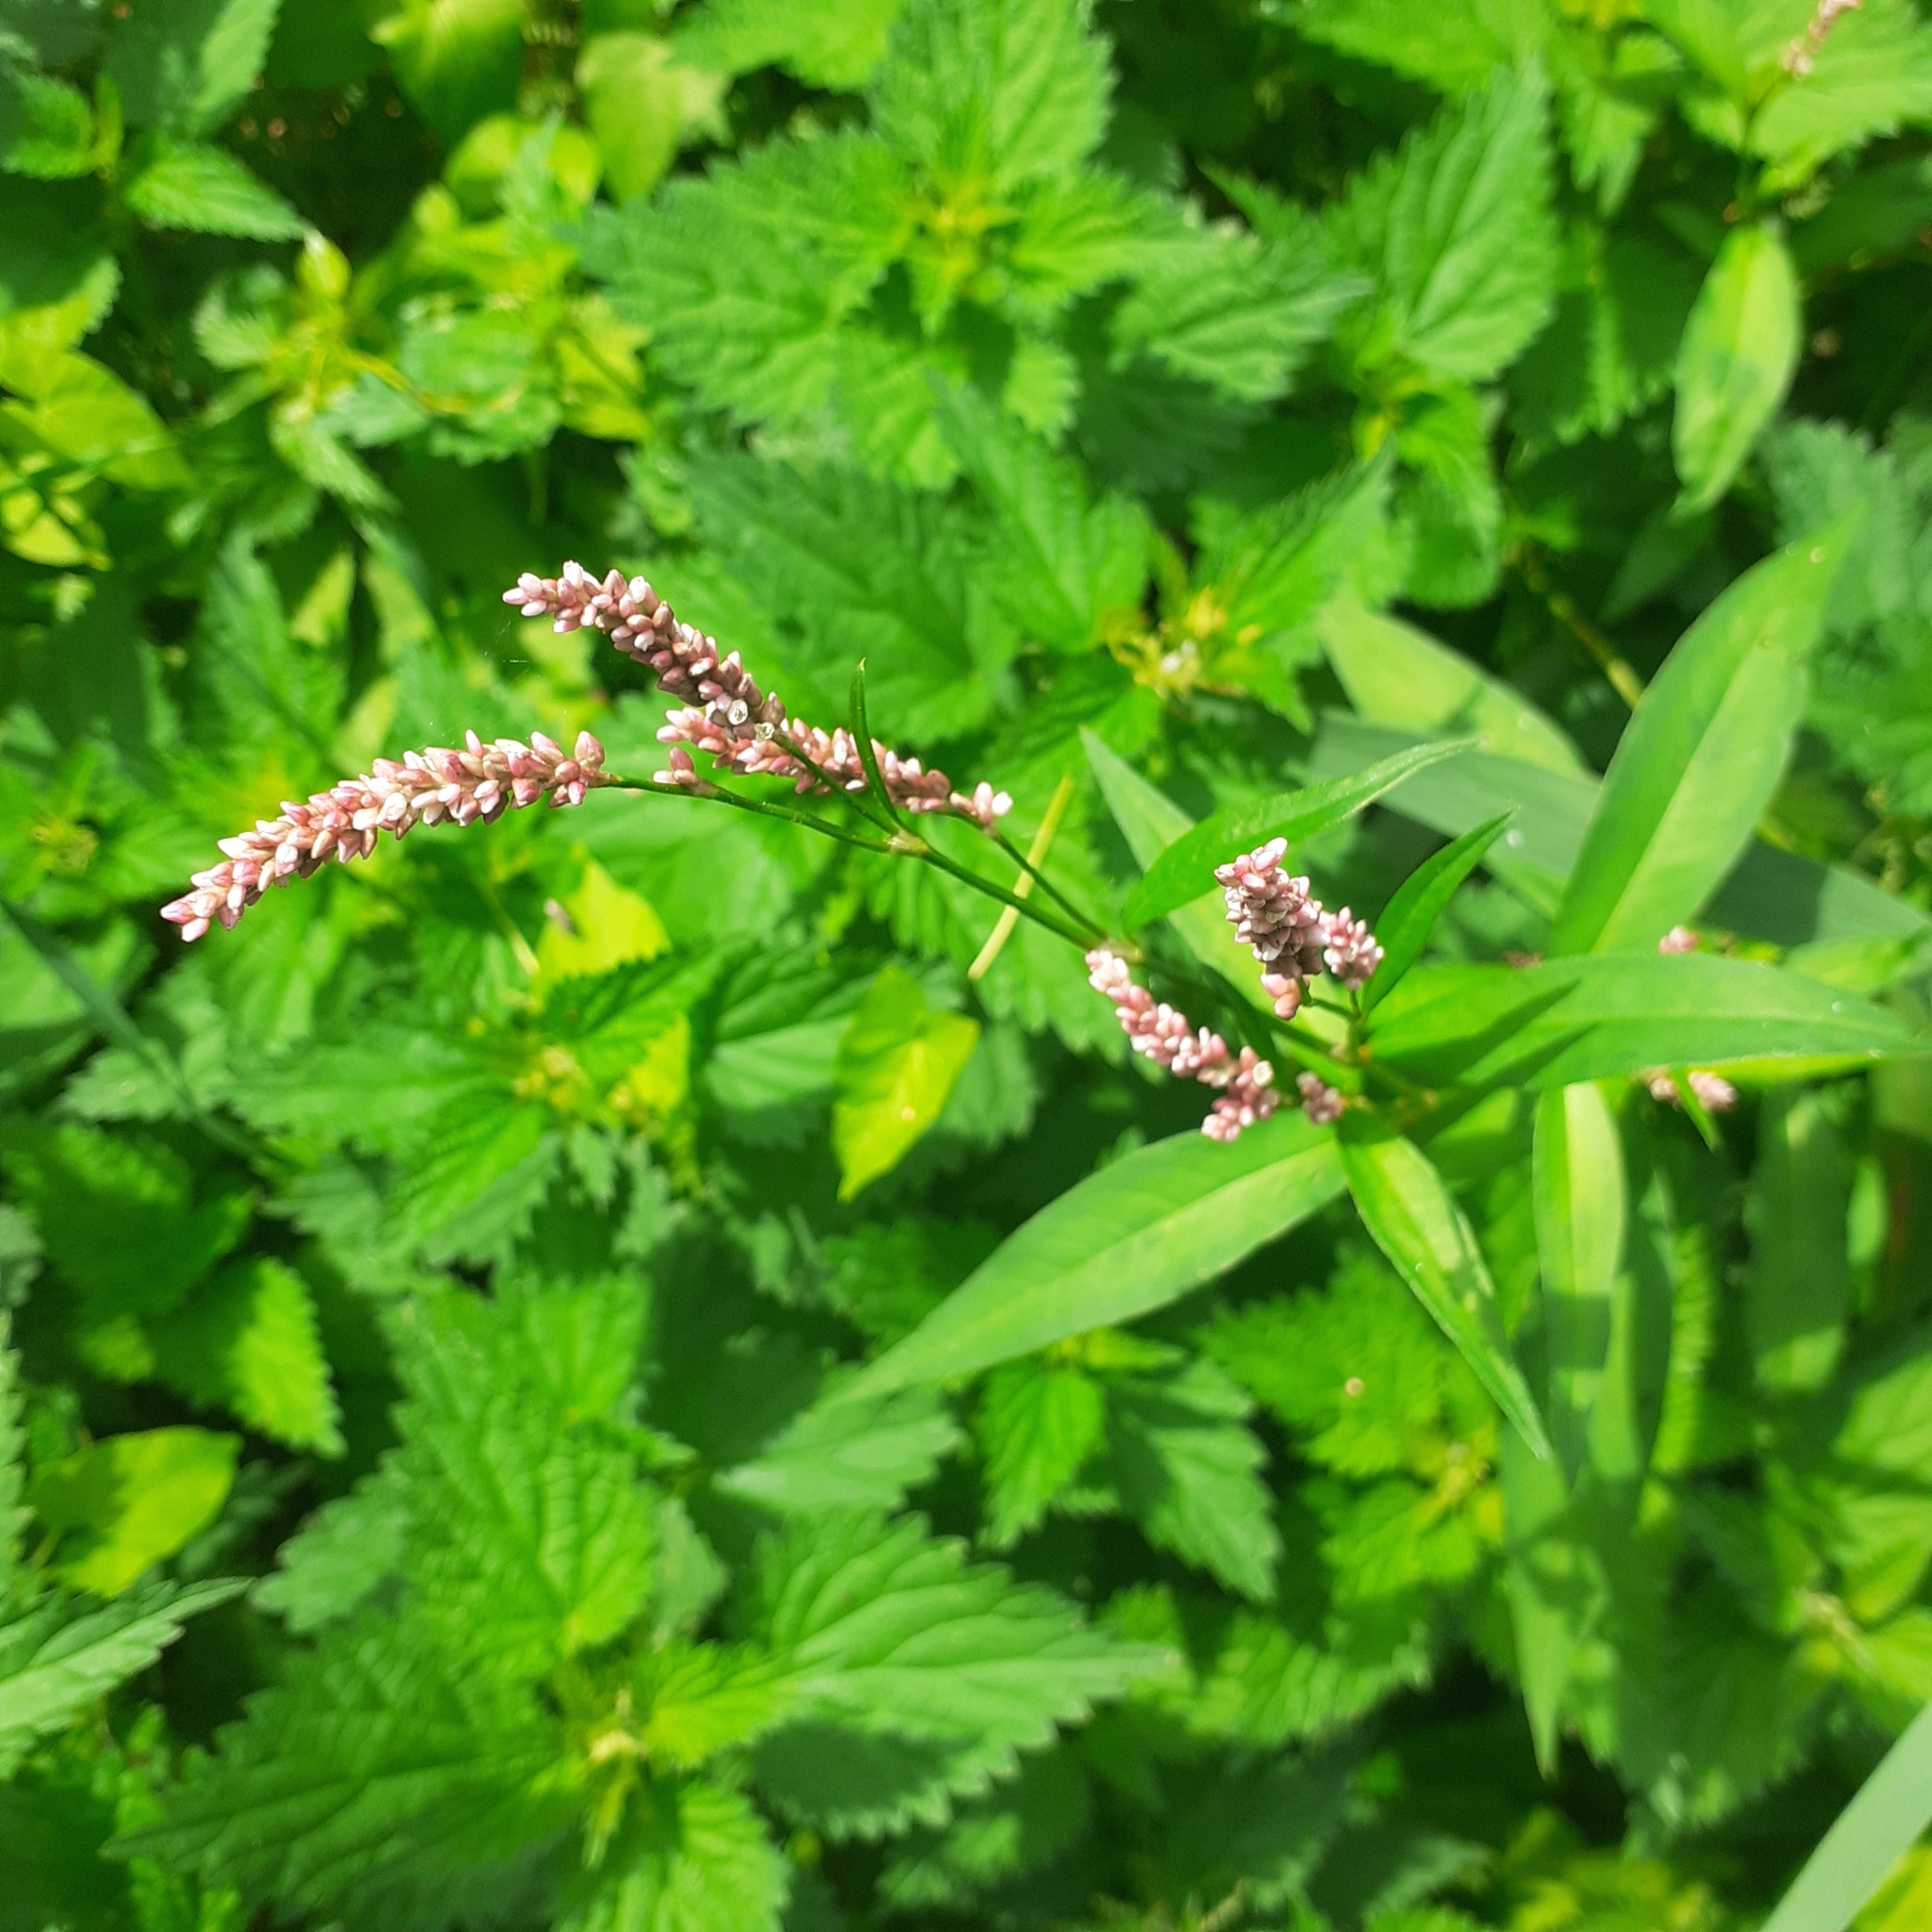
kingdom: Plantae
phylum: Tracheophyta
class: Magnoliopsida
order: Caryophyllales
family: Polygonaceae
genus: Persicaria
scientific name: Persicaria maculosa
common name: Redshank
